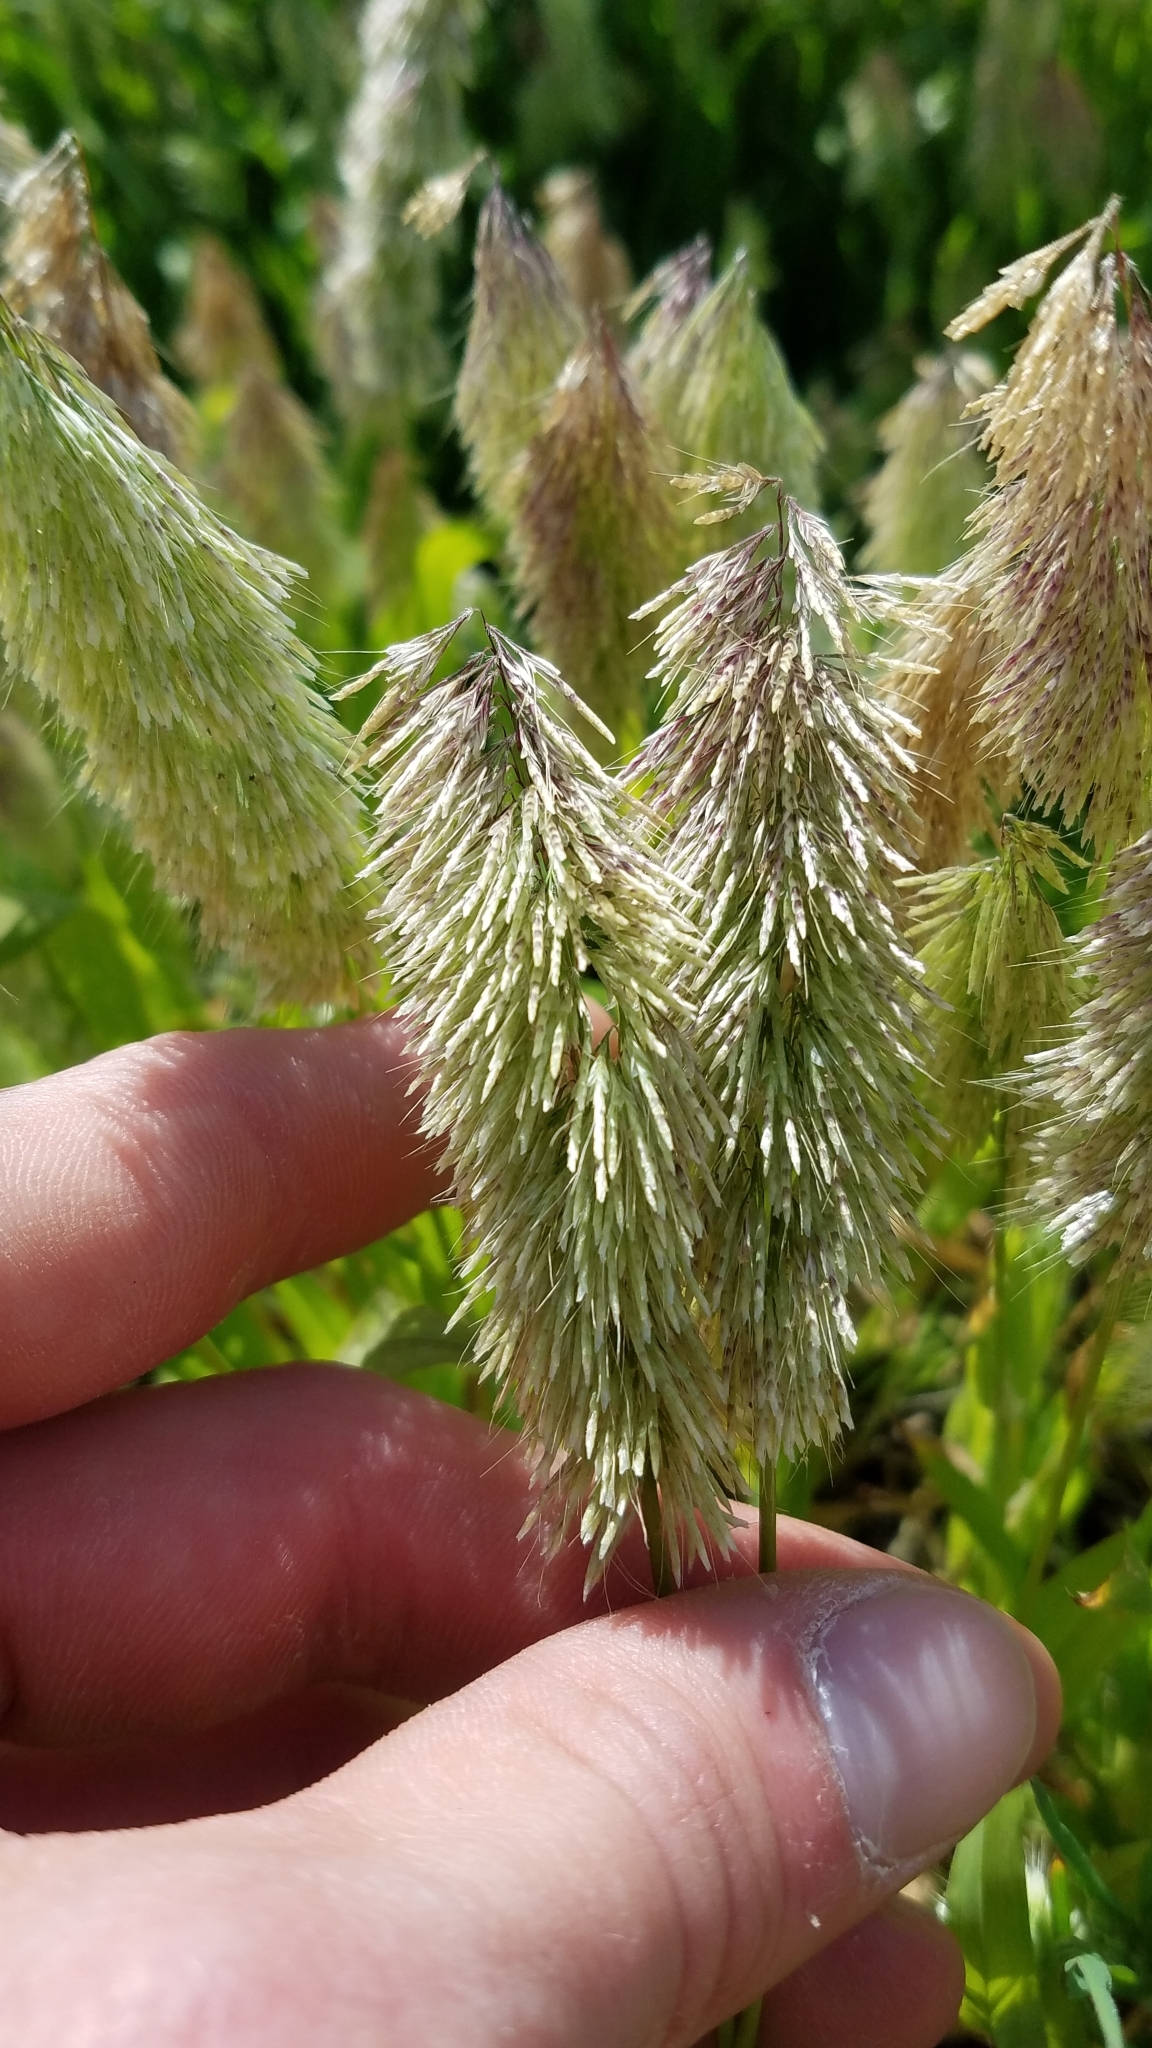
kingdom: Plantae
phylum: Tracheophyta
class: Liliopsida
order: Poales
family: Poaceae
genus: Lamarckia
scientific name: Lamarckia aurea
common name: Golden dog's-tail
